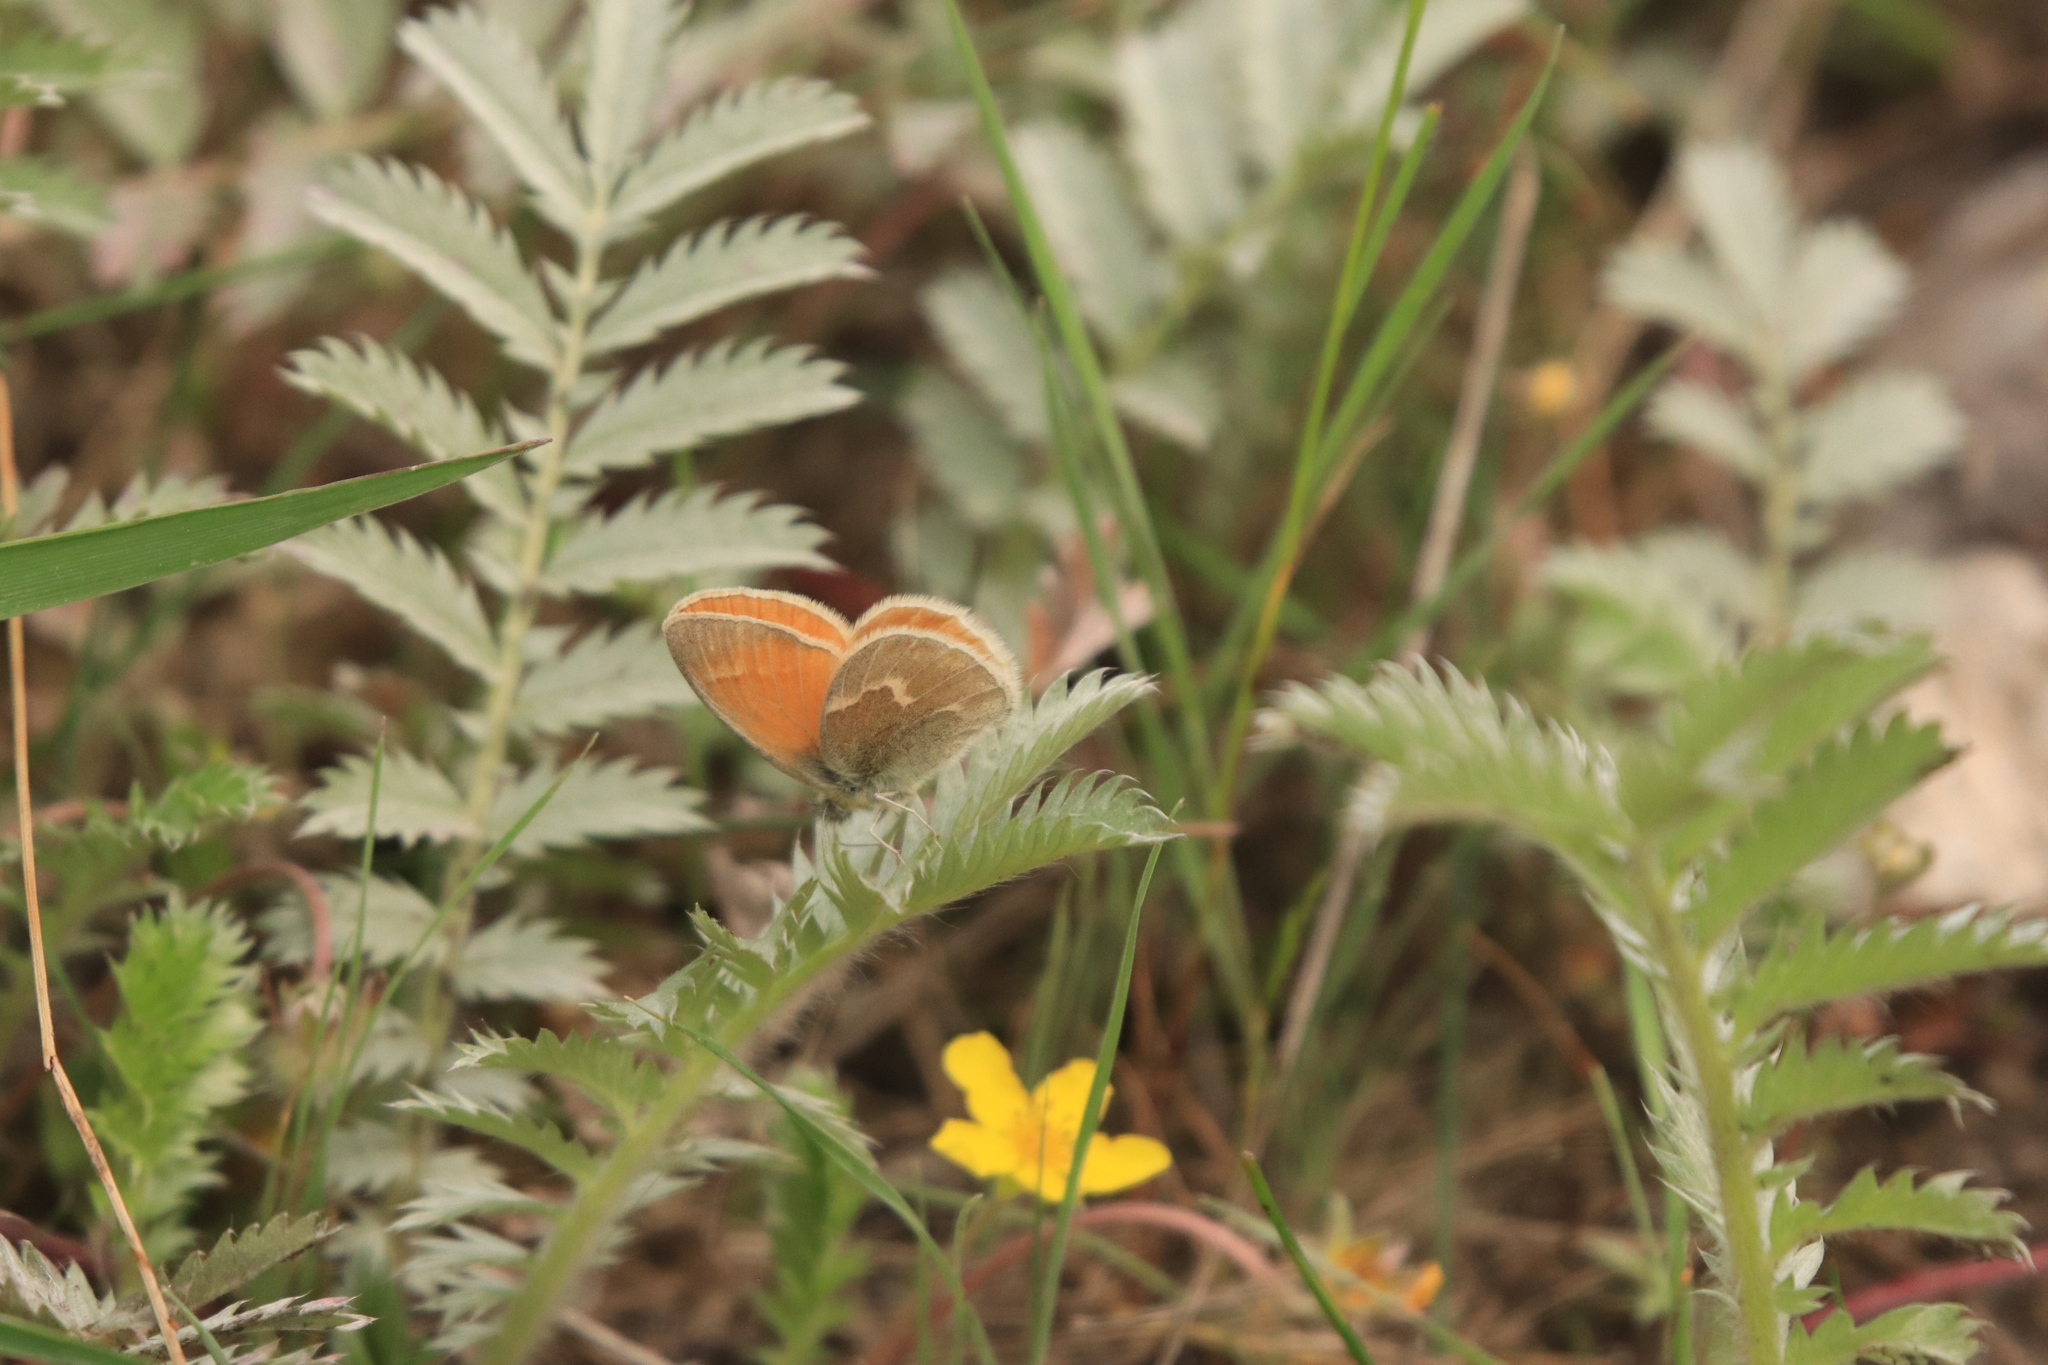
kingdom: Animalia
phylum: Arthropoda
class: Insecta
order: Lepidoptera
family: Nymphalidae
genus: Coenonympha
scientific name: Coenonympha california
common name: Common ringlet
